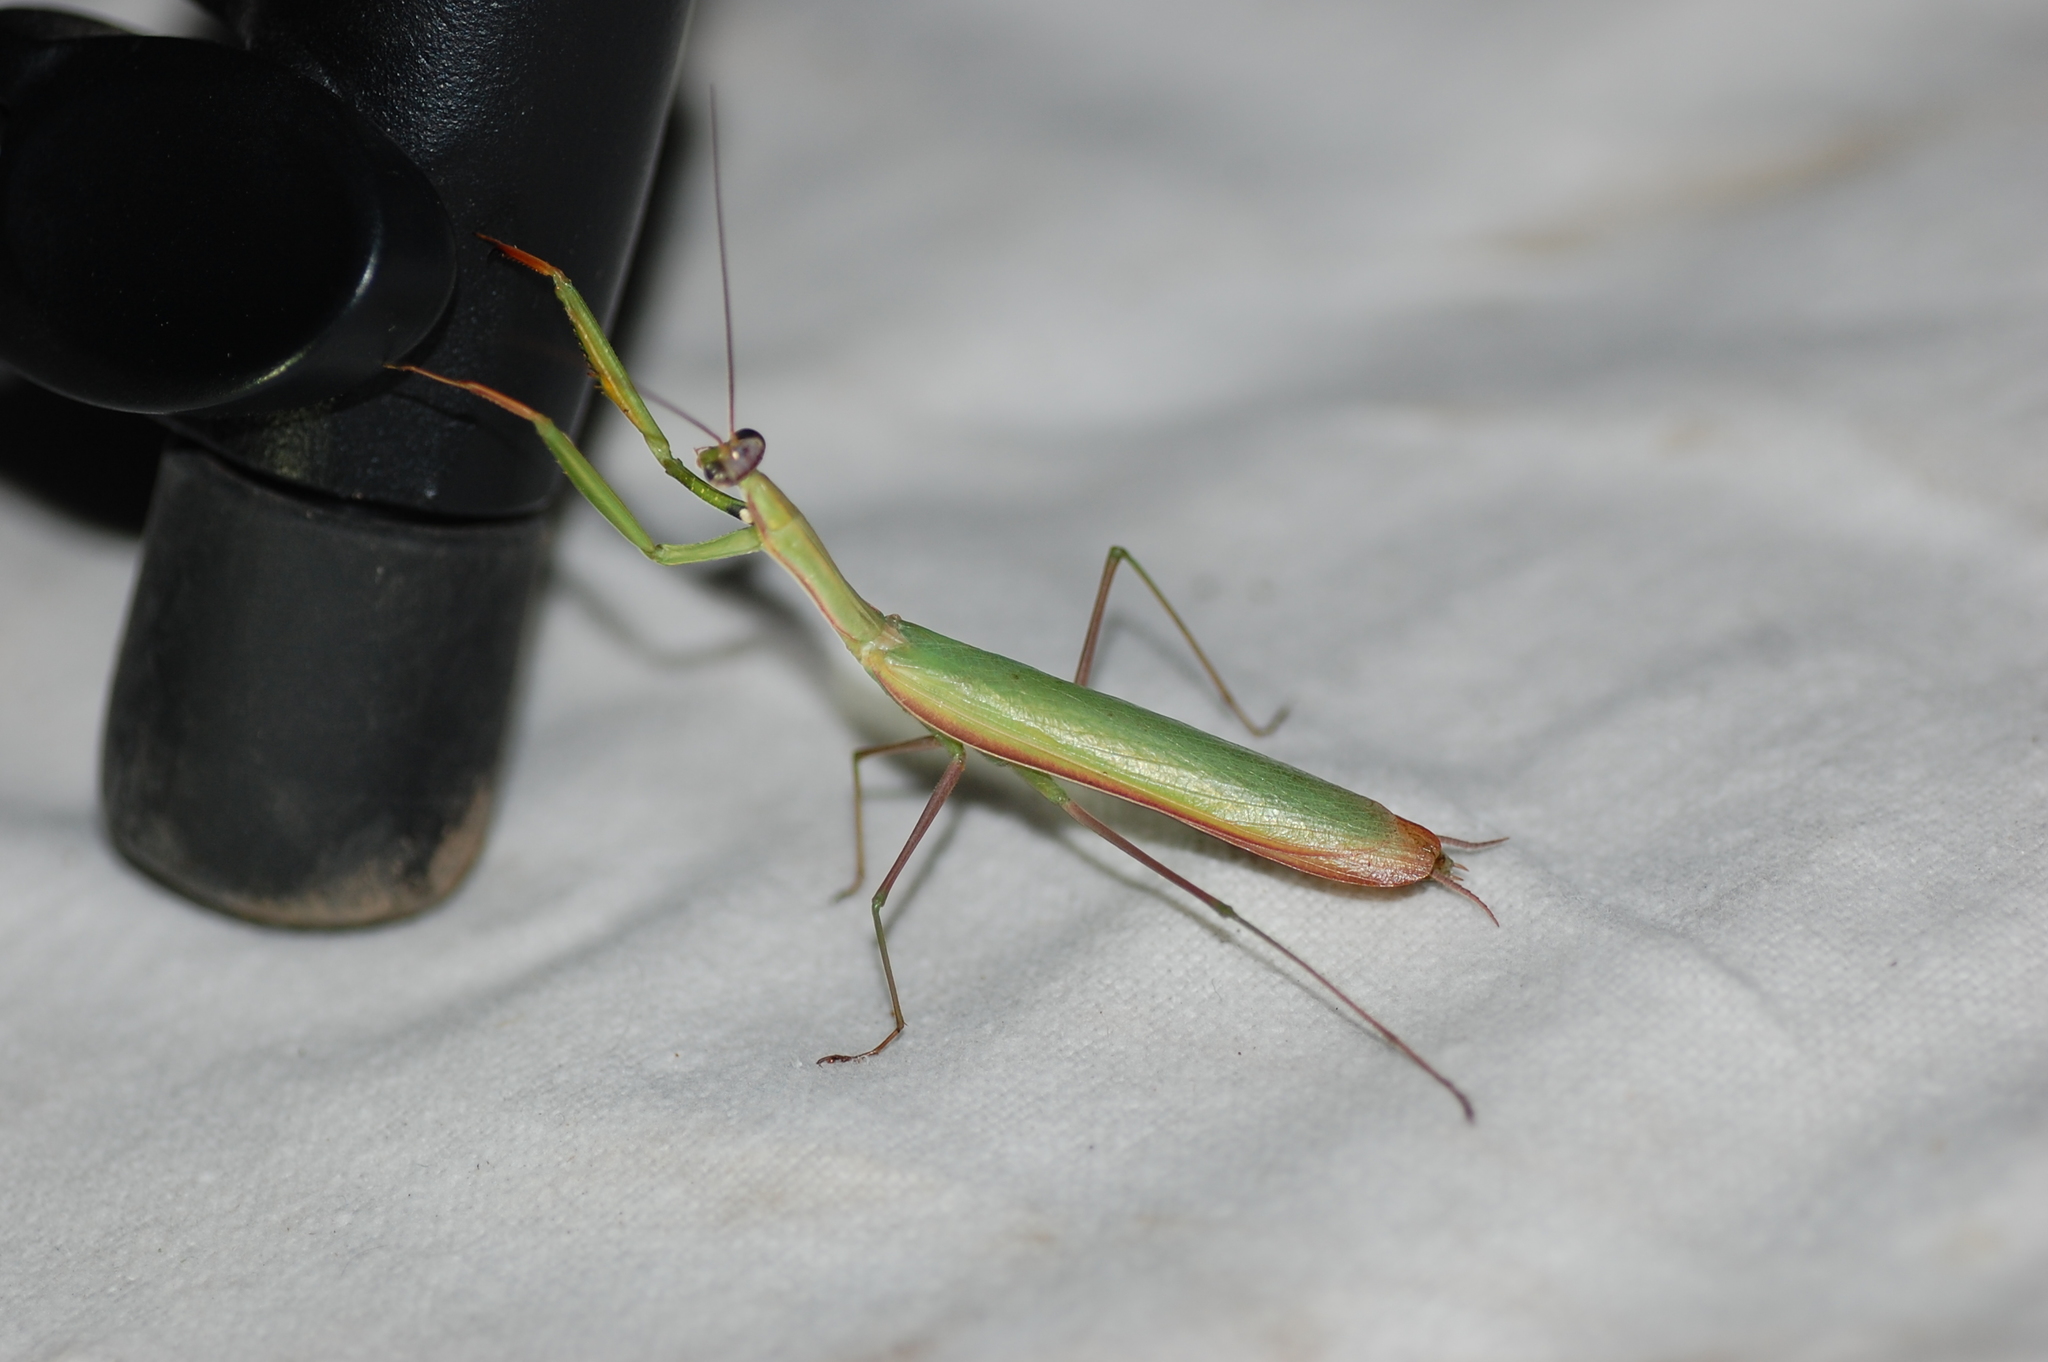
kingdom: Animalia
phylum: Arthropoda
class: Insecta
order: Mantodea
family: Mantidae
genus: Mantis
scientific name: Mantis religiosa
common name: Praying mantis
